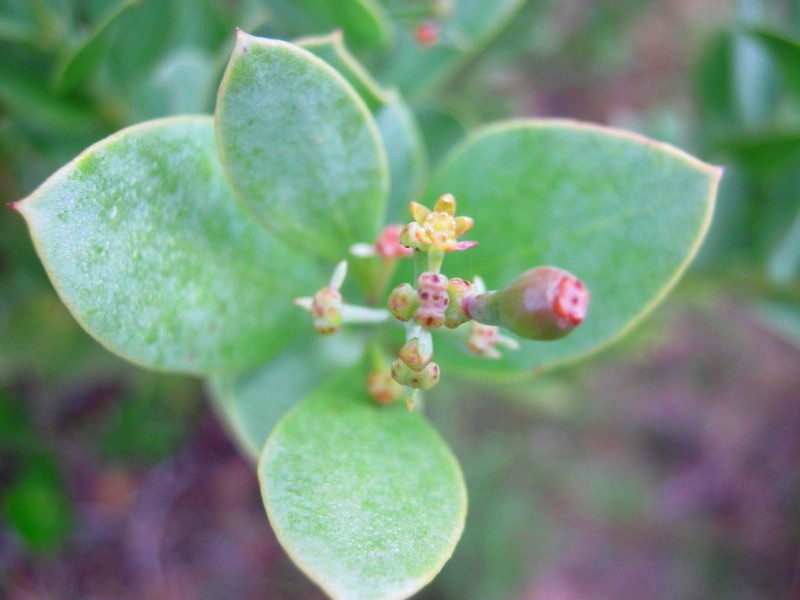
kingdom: Plantae
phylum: Tracheophyta
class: Magnoliopsida
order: Santalales
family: Santalaceae
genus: Osyris
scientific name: Osyris compressa
